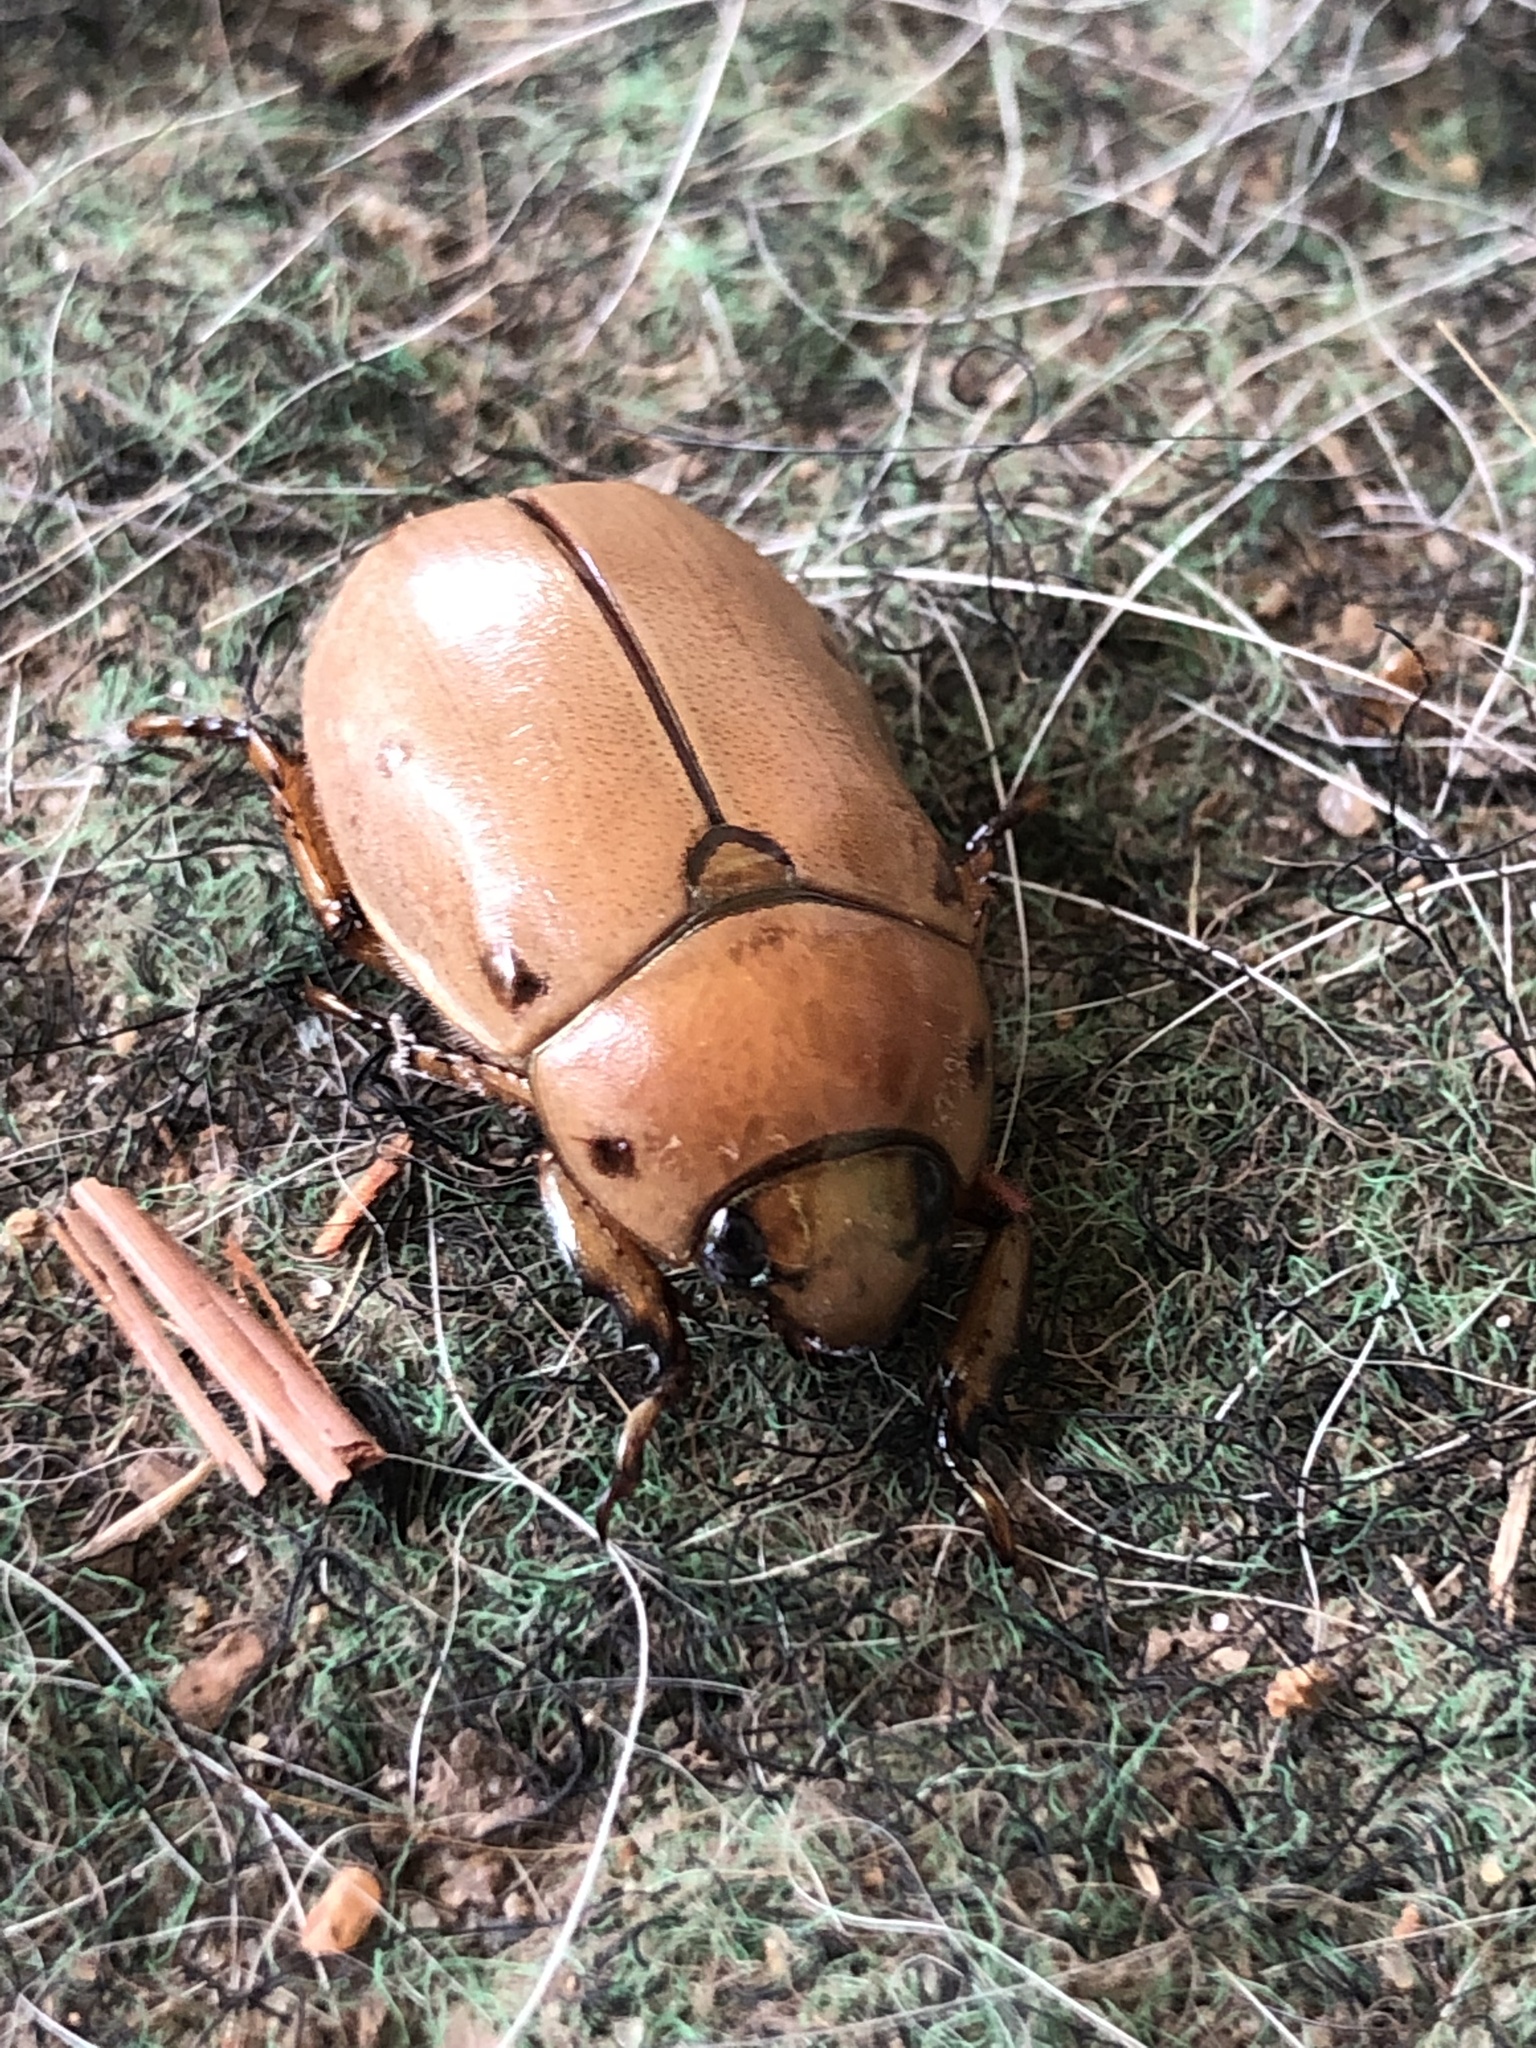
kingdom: Animalia
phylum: Arthropoda
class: Insecta
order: Coleoptera
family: Scarabaeidae
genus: Pelidnota
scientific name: Pelidnota punctata
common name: Grapevine beetle
